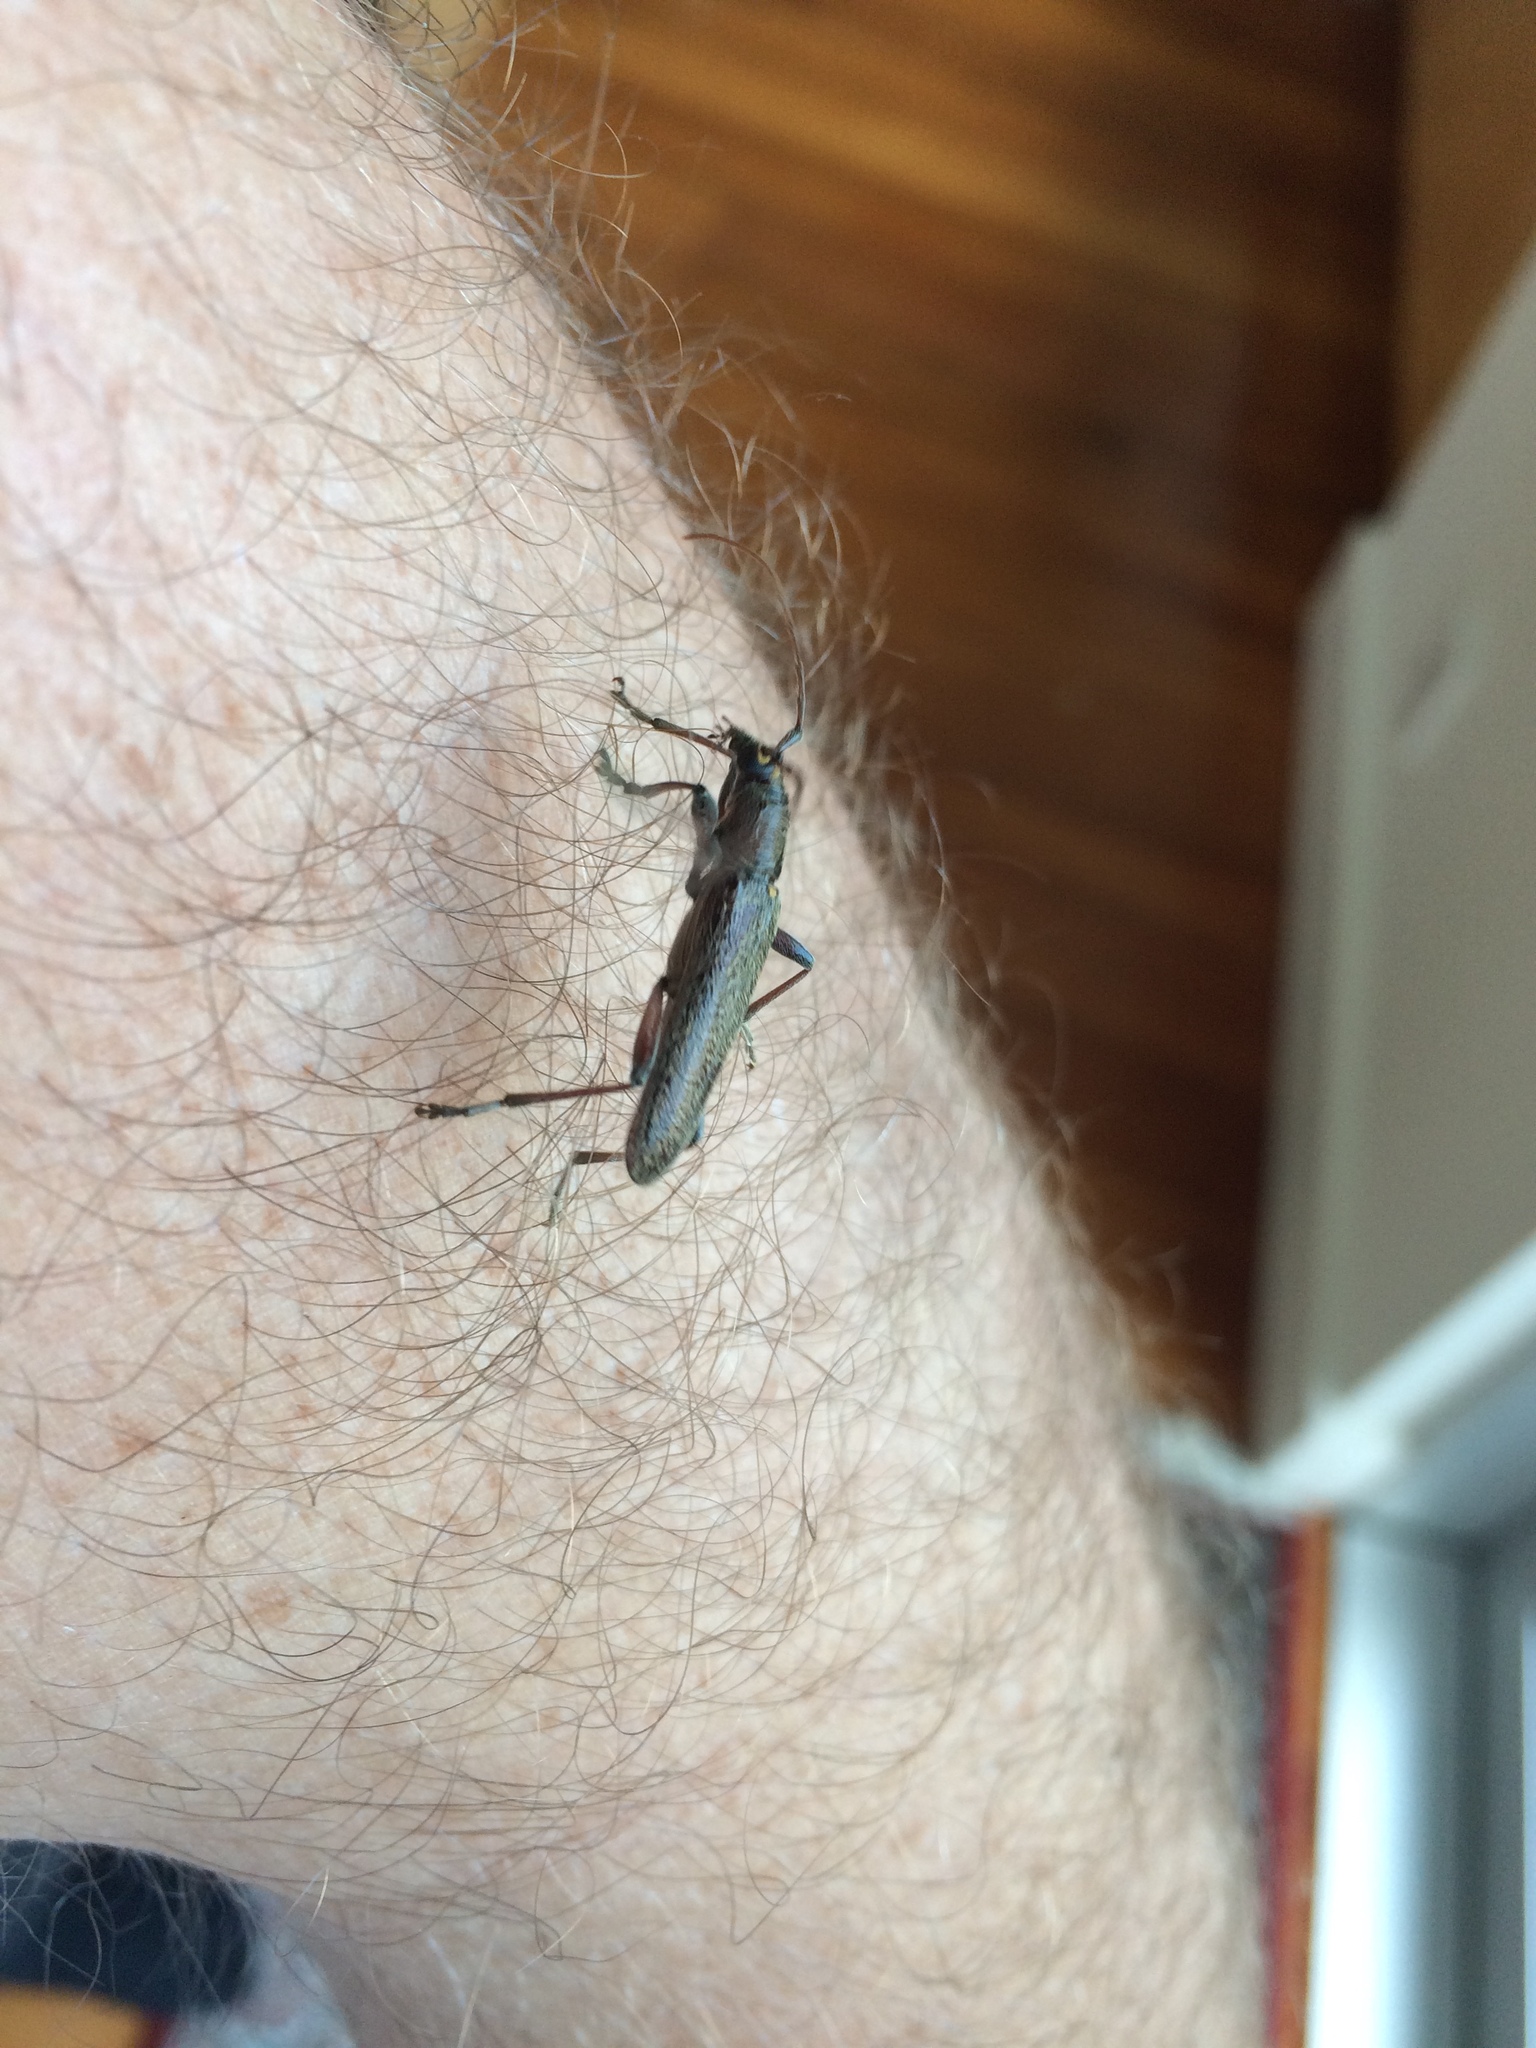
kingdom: Animalia
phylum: Arthropoda
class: Insecta
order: Coleoptera
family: Cerambycidae
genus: Oemona
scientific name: Oemona hirta
